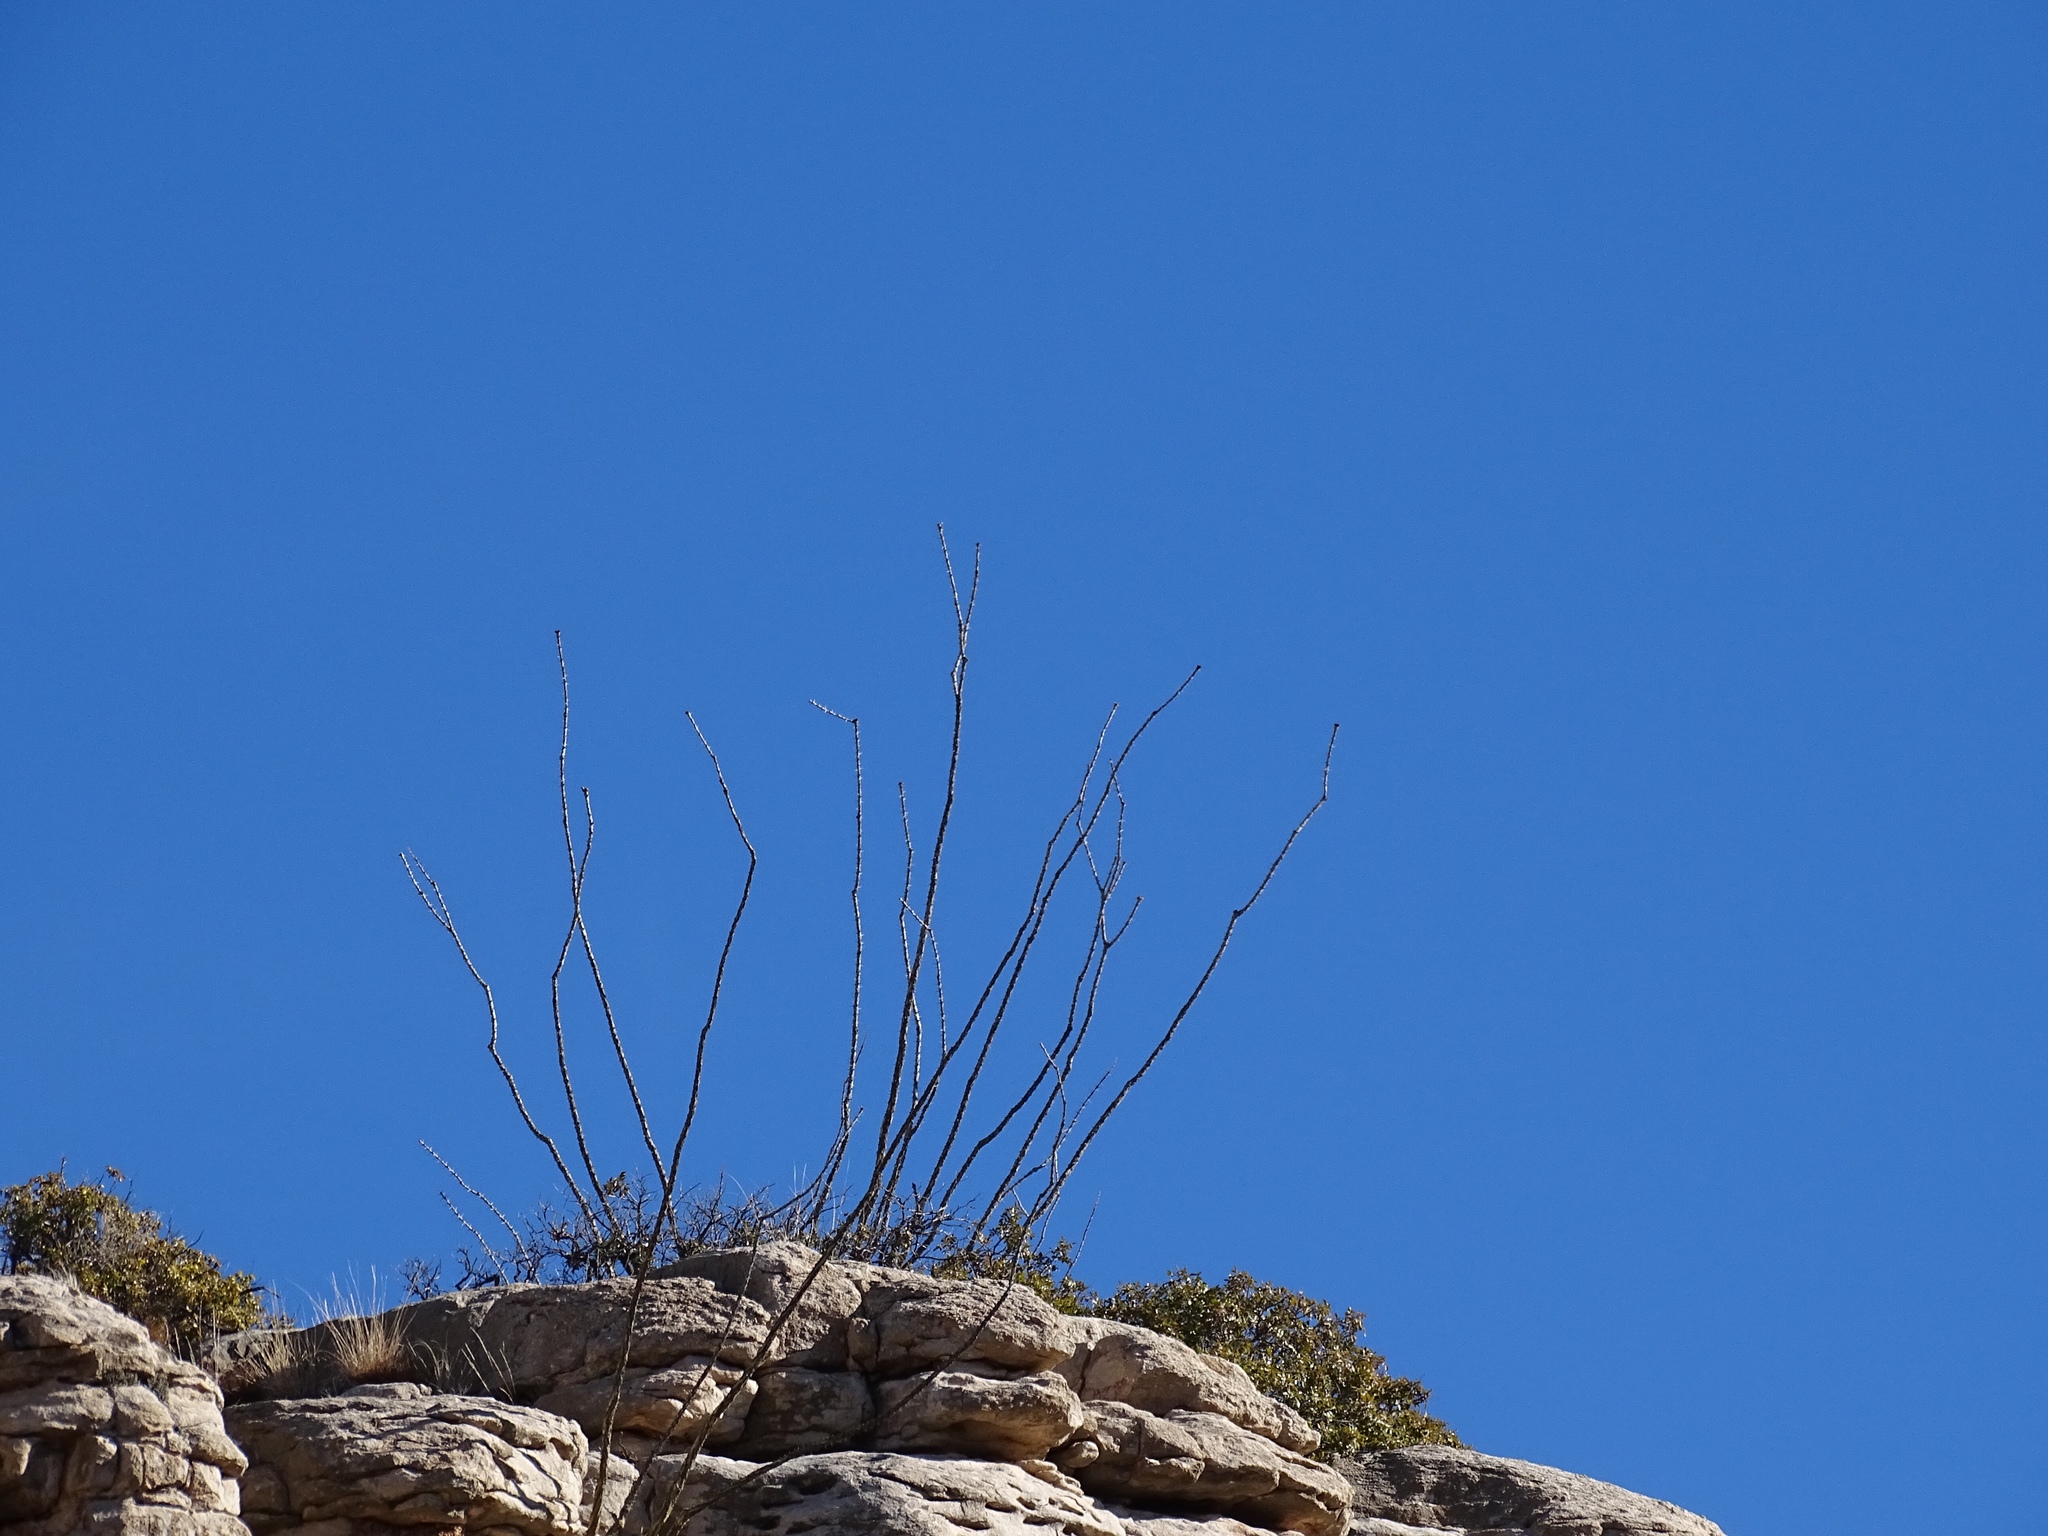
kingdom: Plantae
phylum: Tracheophyta
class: Magnoliopsida
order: Ericales
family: Fouquieriaceae
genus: Fouquieria
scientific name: Fouquieria splendens
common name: Vine-cactus
